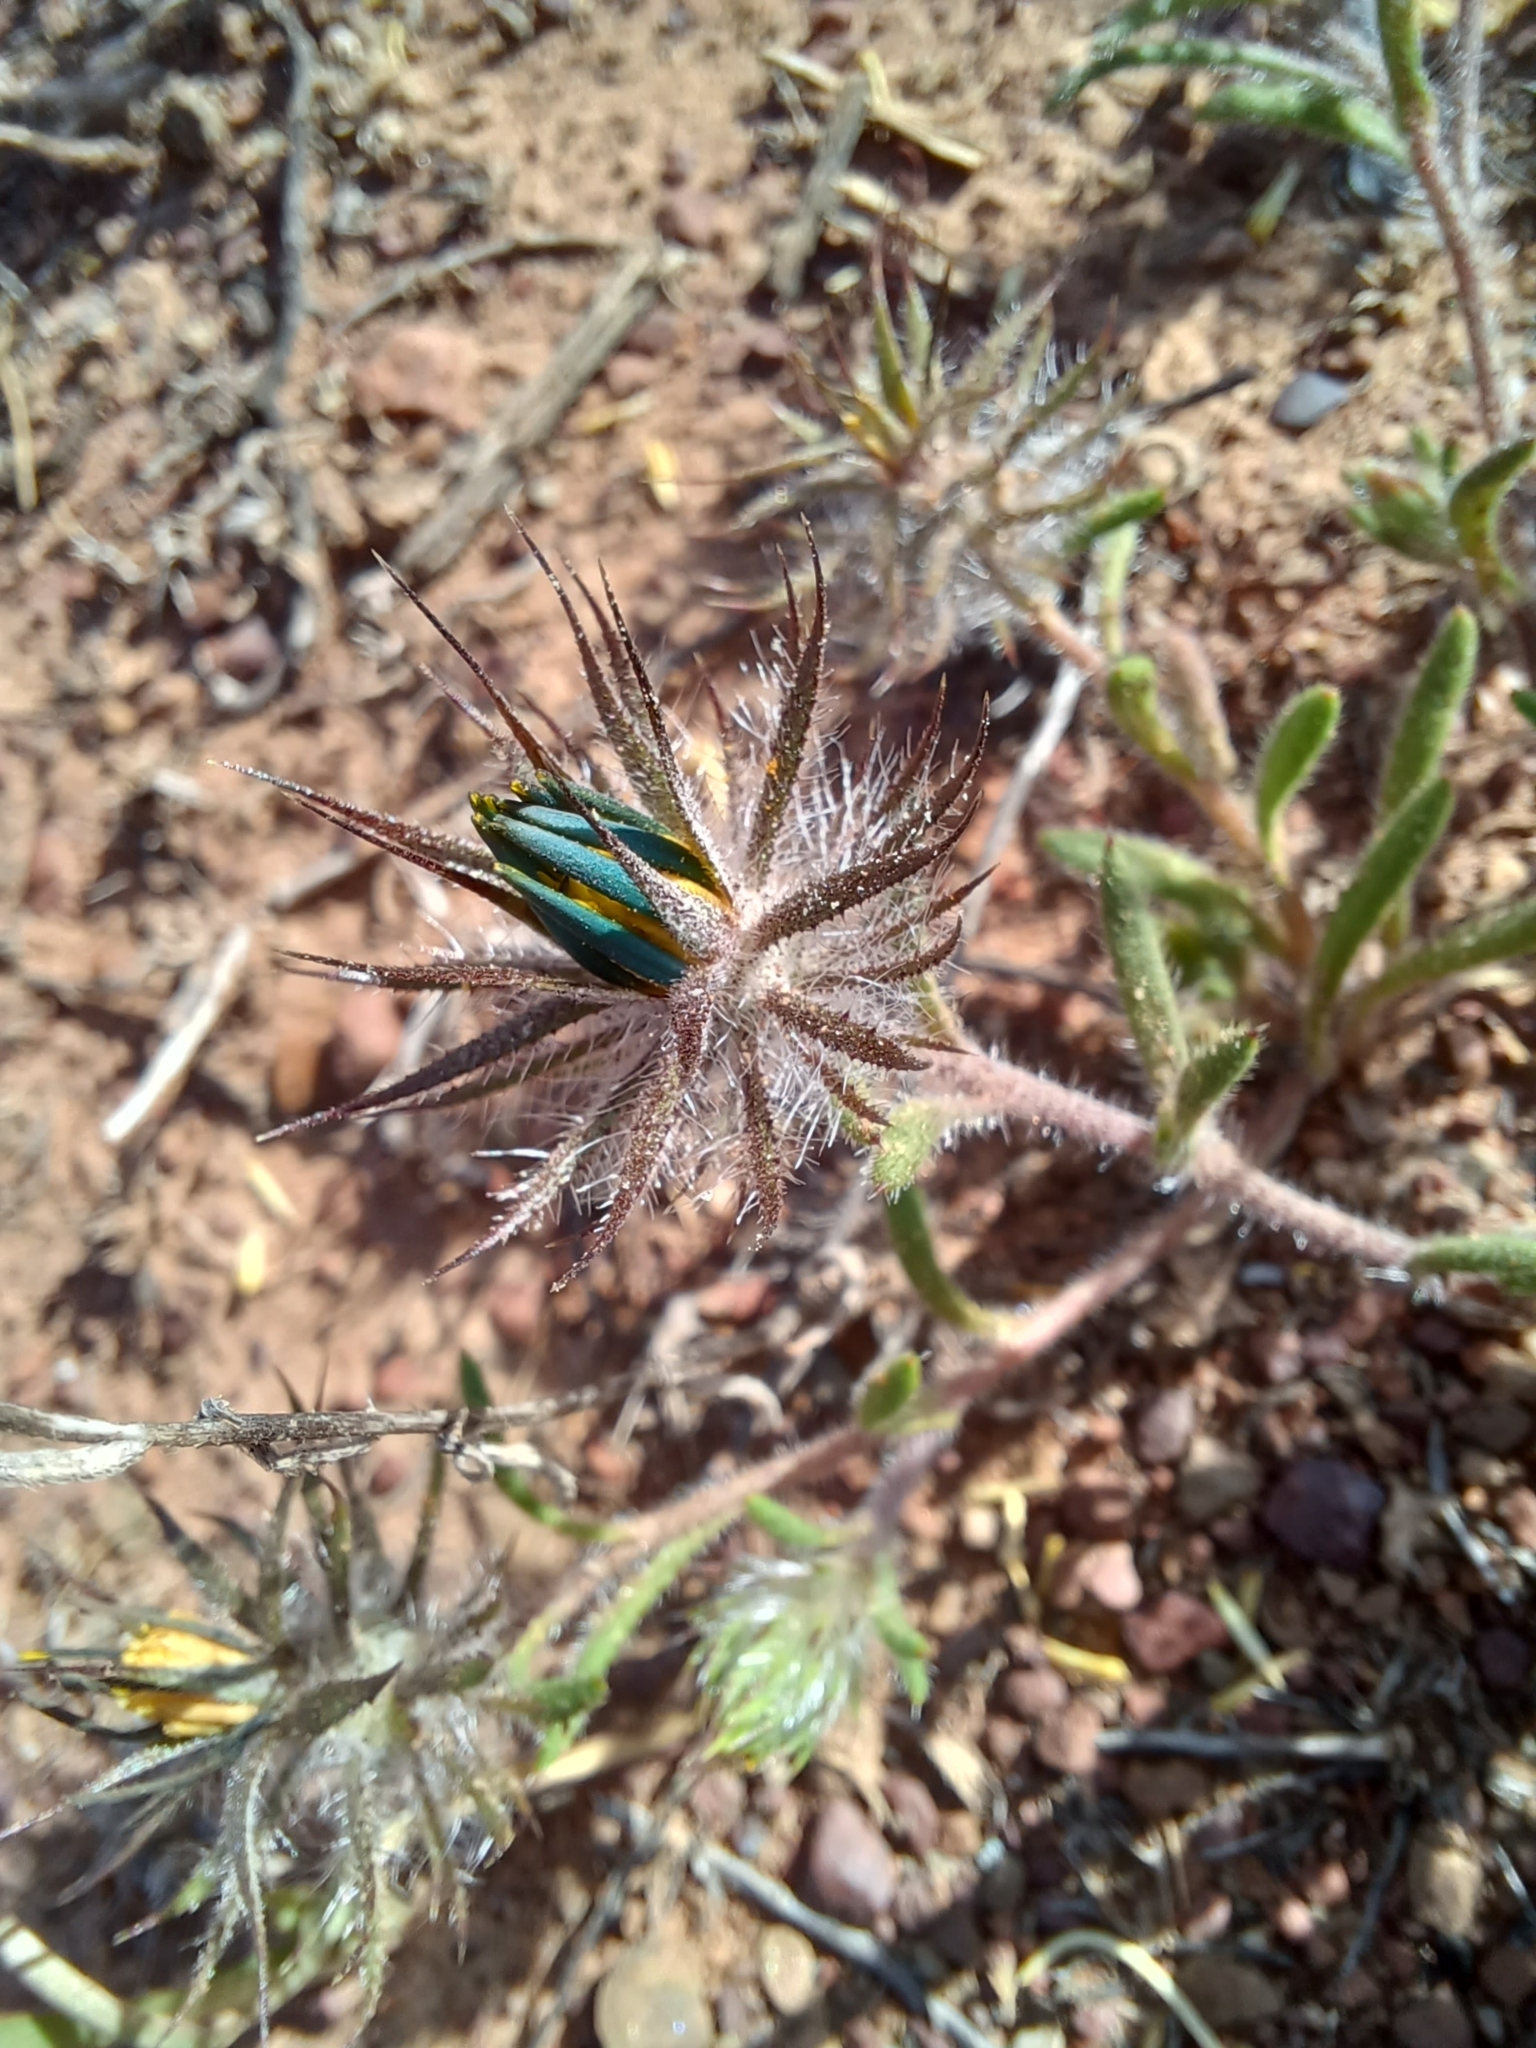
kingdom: Plantae
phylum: Tracheophyta
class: Magnoliopsida
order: Asterales
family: Asteraceae
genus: Gorteria
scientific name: Gorteria piloselloides
